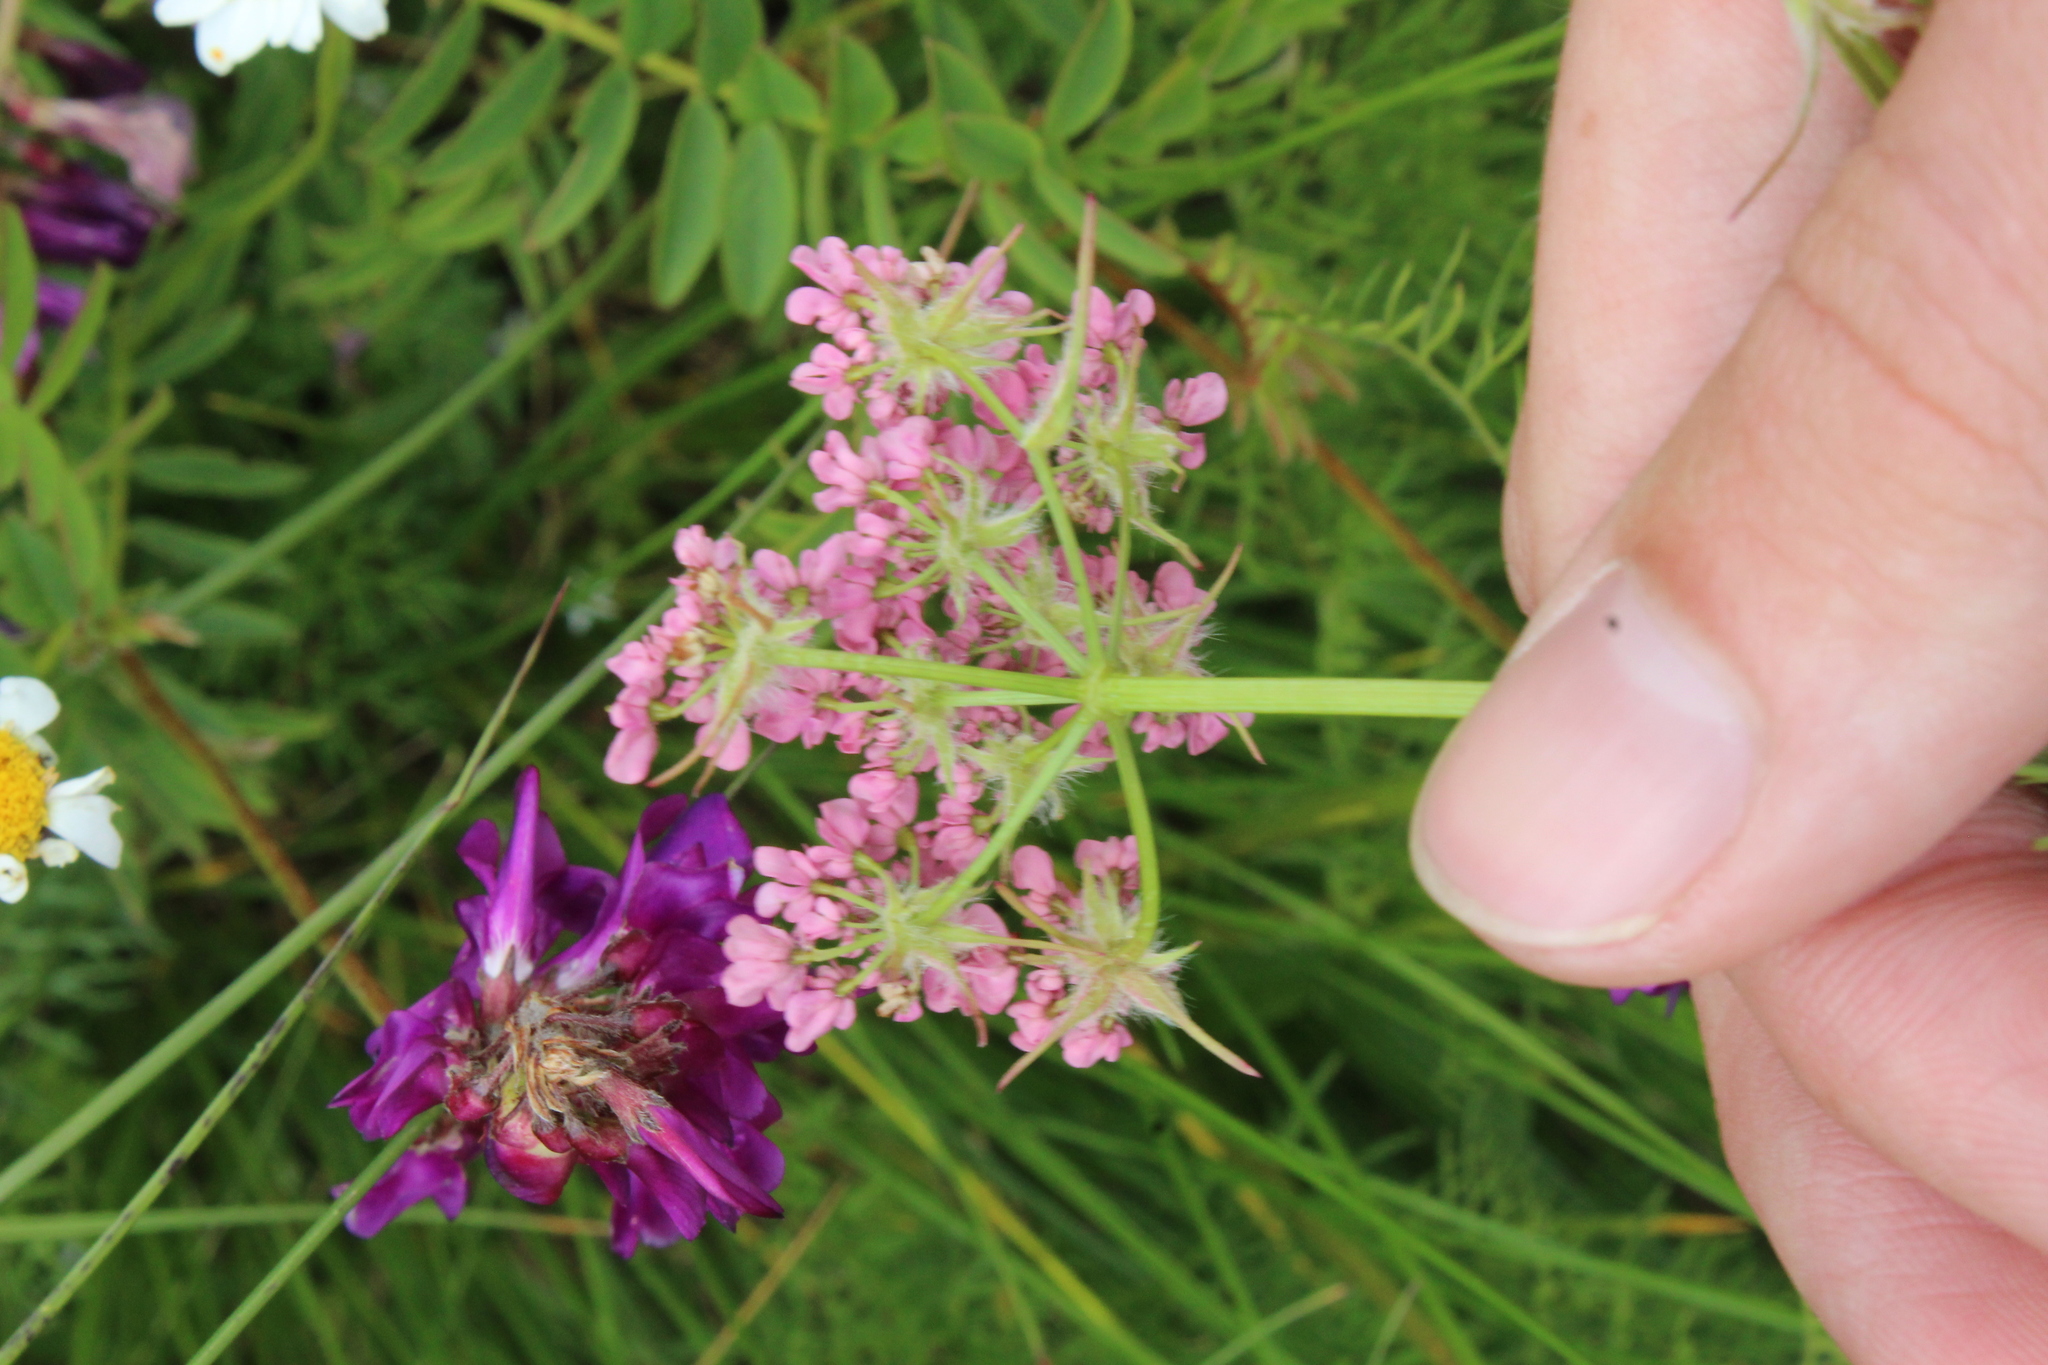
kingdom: Plantae
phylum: Tracheophyta
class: Magnoliopsida
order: Apiales
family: Apiaceae
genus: Chaerophyllum
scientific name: Chaerophyllum roseum
